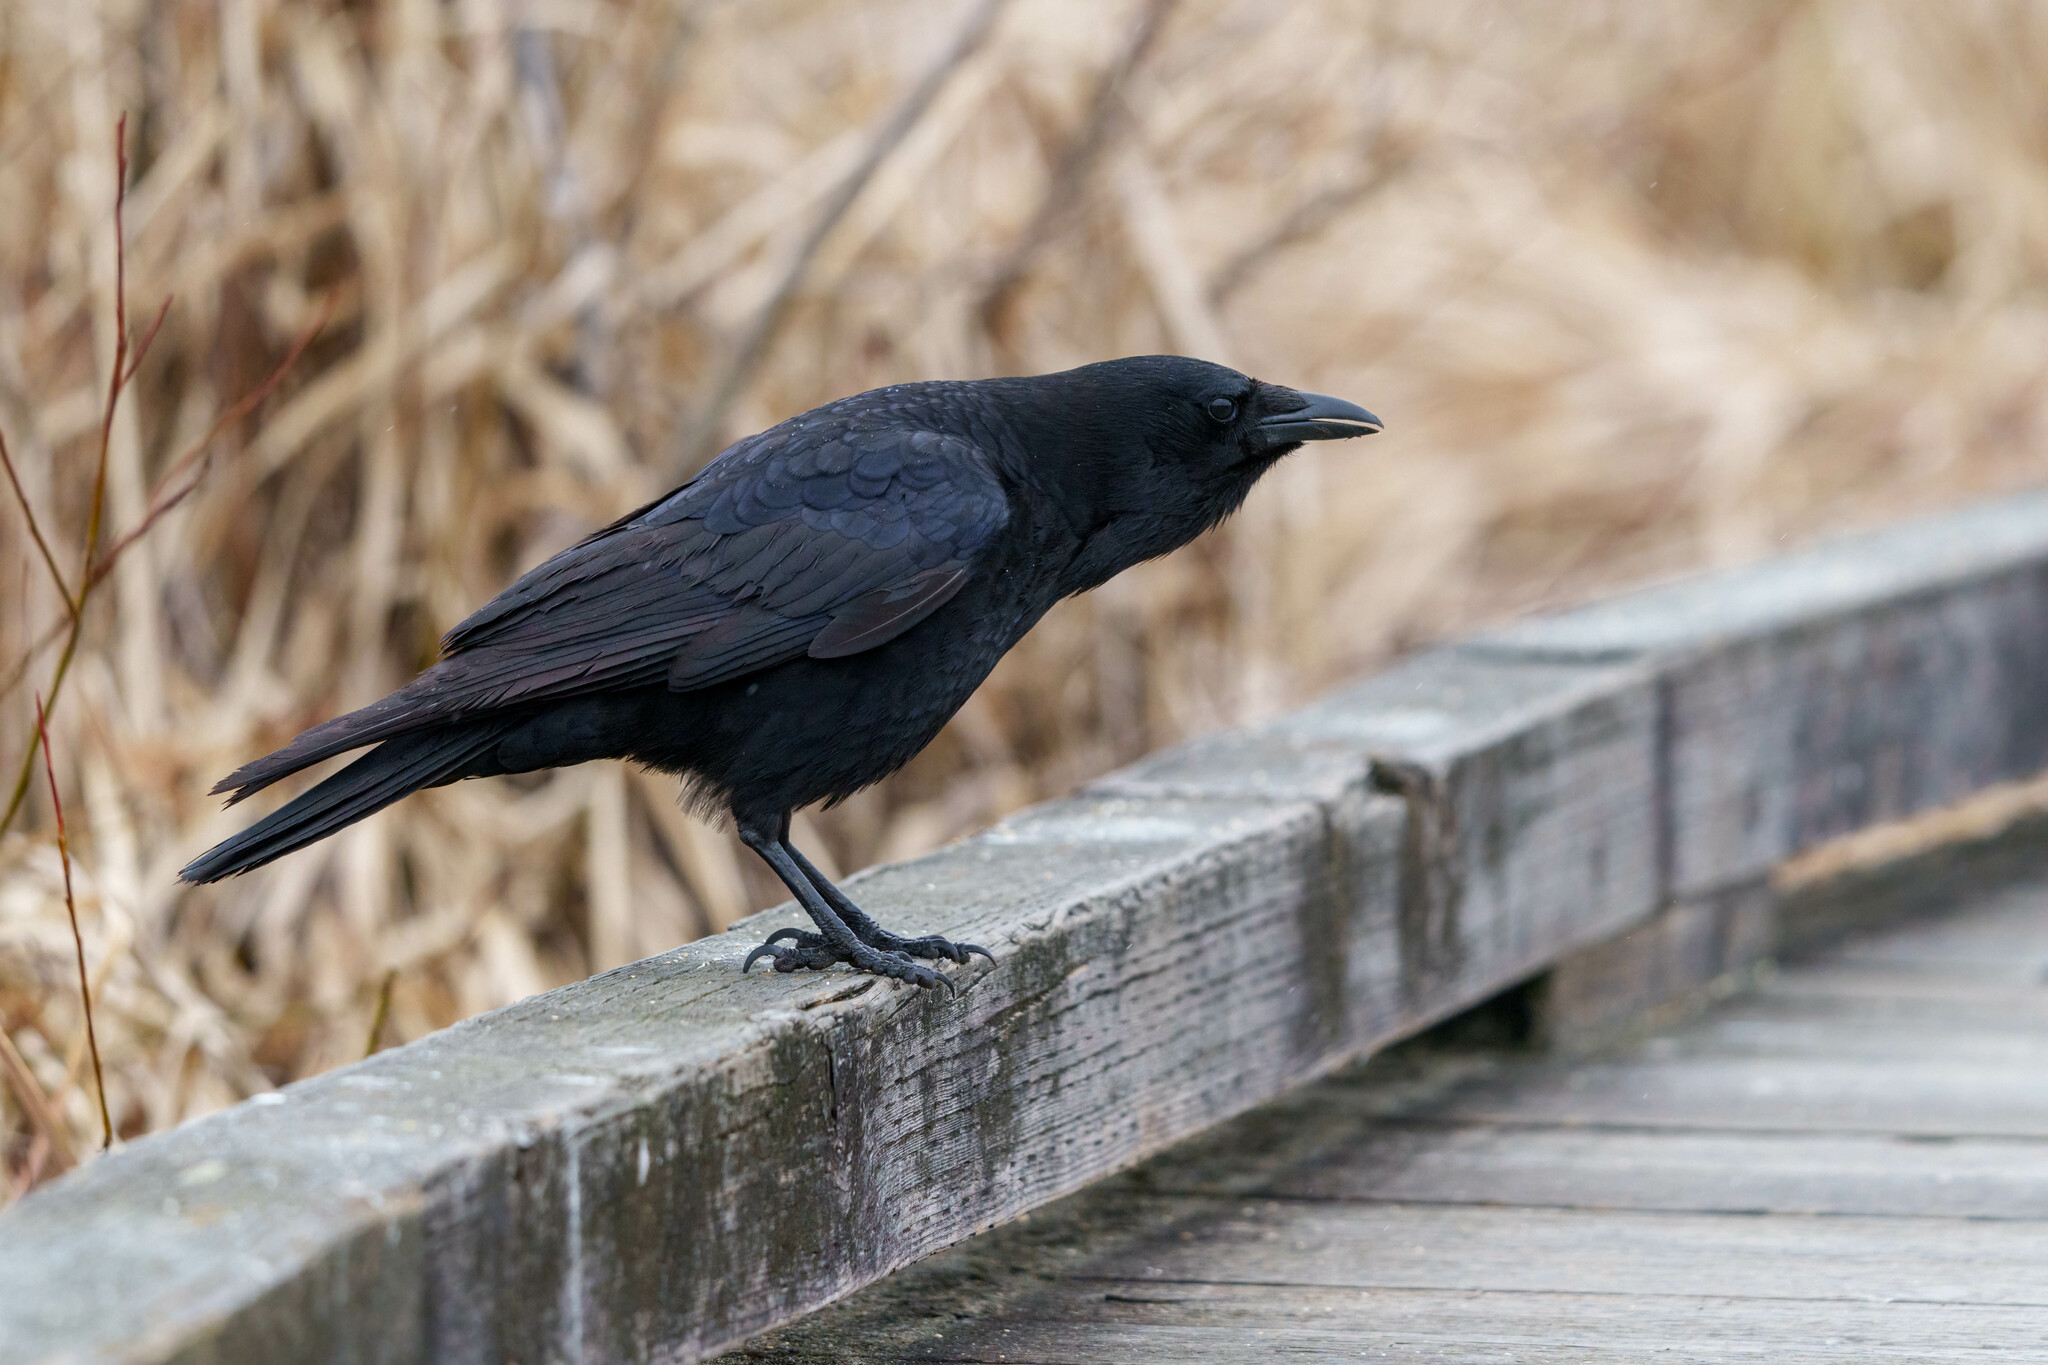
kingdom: Animalia
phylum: Chordata
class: Aves
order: Passeriformes
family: Corvidae
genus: Corvus
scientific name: Corvus brachyrhynchos
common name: American crow
